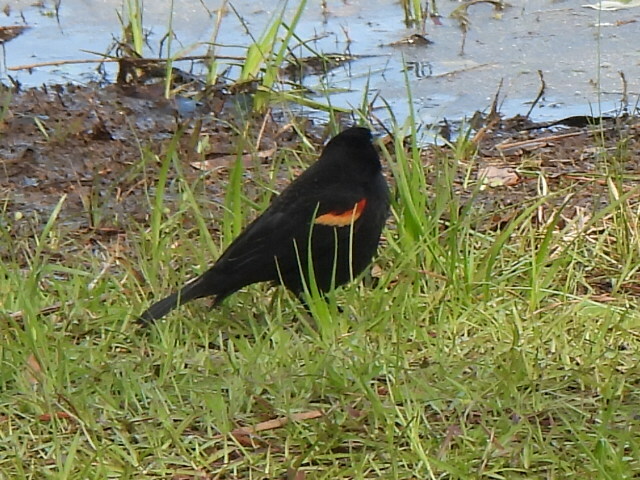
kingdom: Animalia
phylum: Chordata
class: Aves
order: Passeriformes
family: Icteridae
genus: Agelaius
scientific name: Agelaius phoeniceus
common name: Red-winged blackbird
